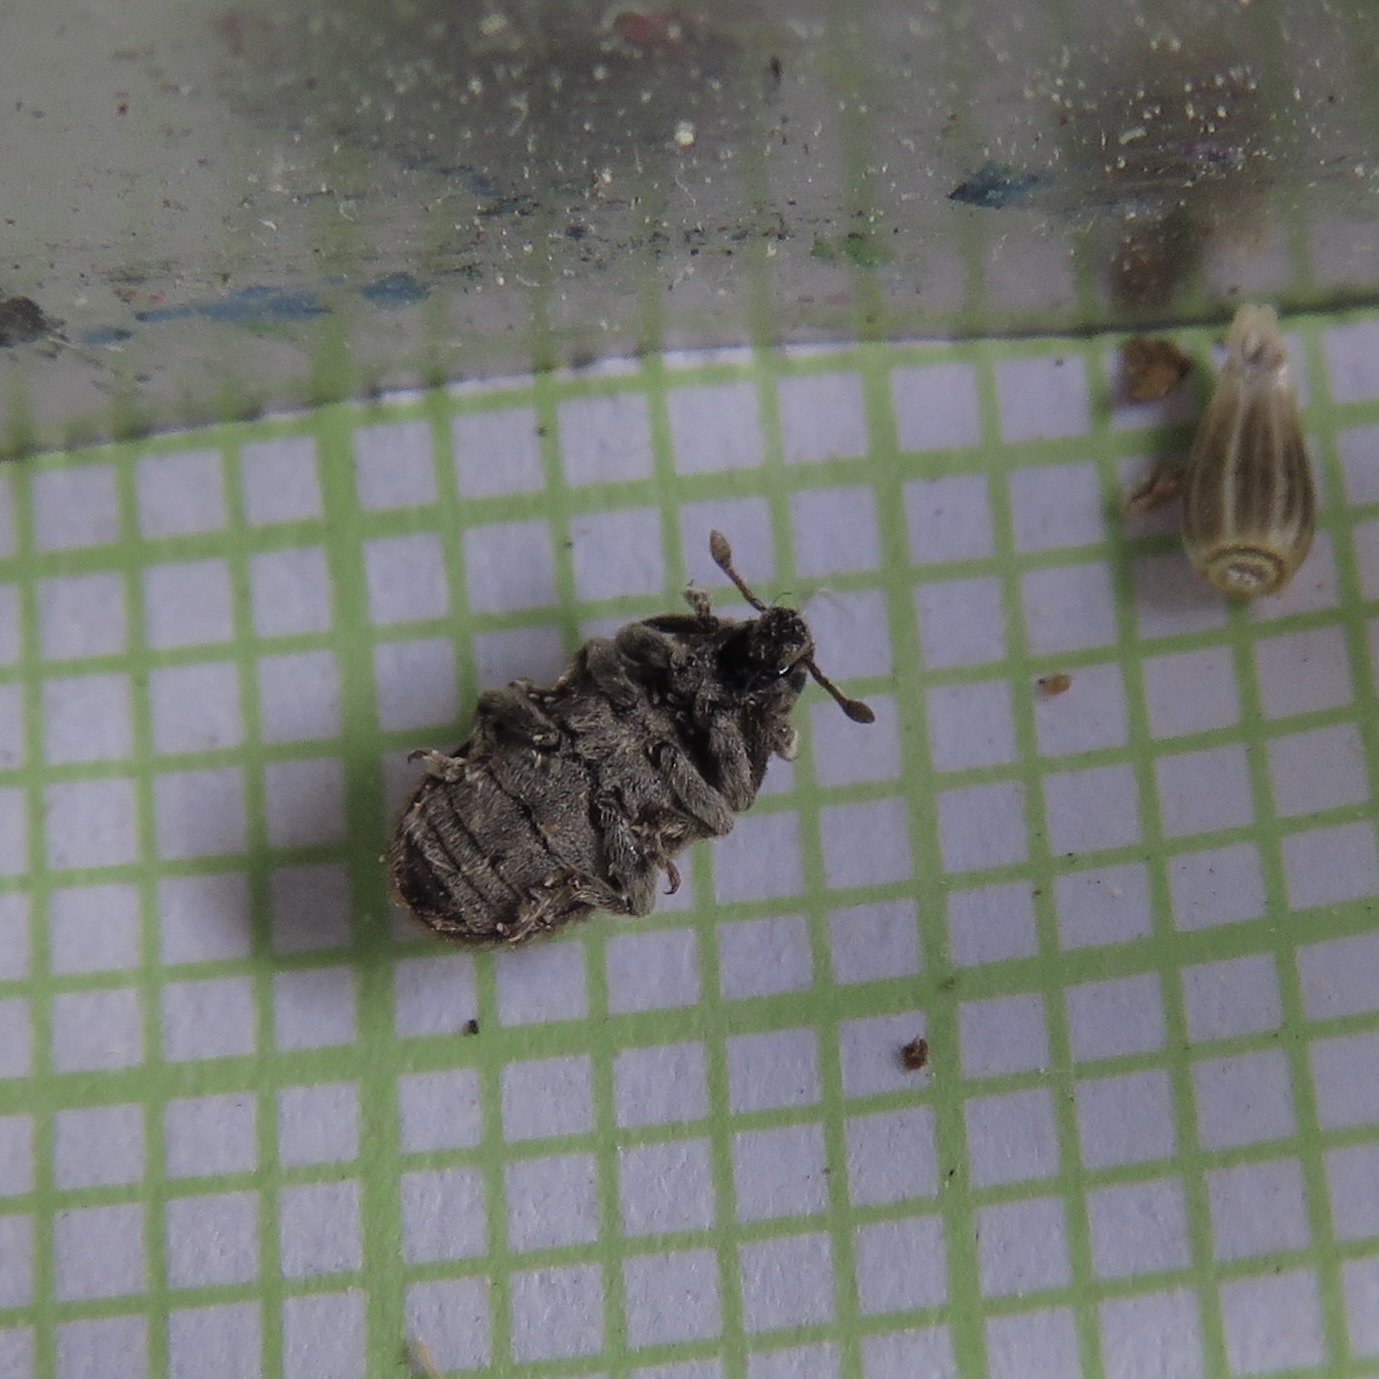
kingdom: Animalia
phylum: Arthropoda
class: Insecta
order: Coleoptera
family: Curculionidae
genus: Bangasternus
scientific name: Bangasternus fausti
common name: Broad-nosed knapweed seedhead weevil
